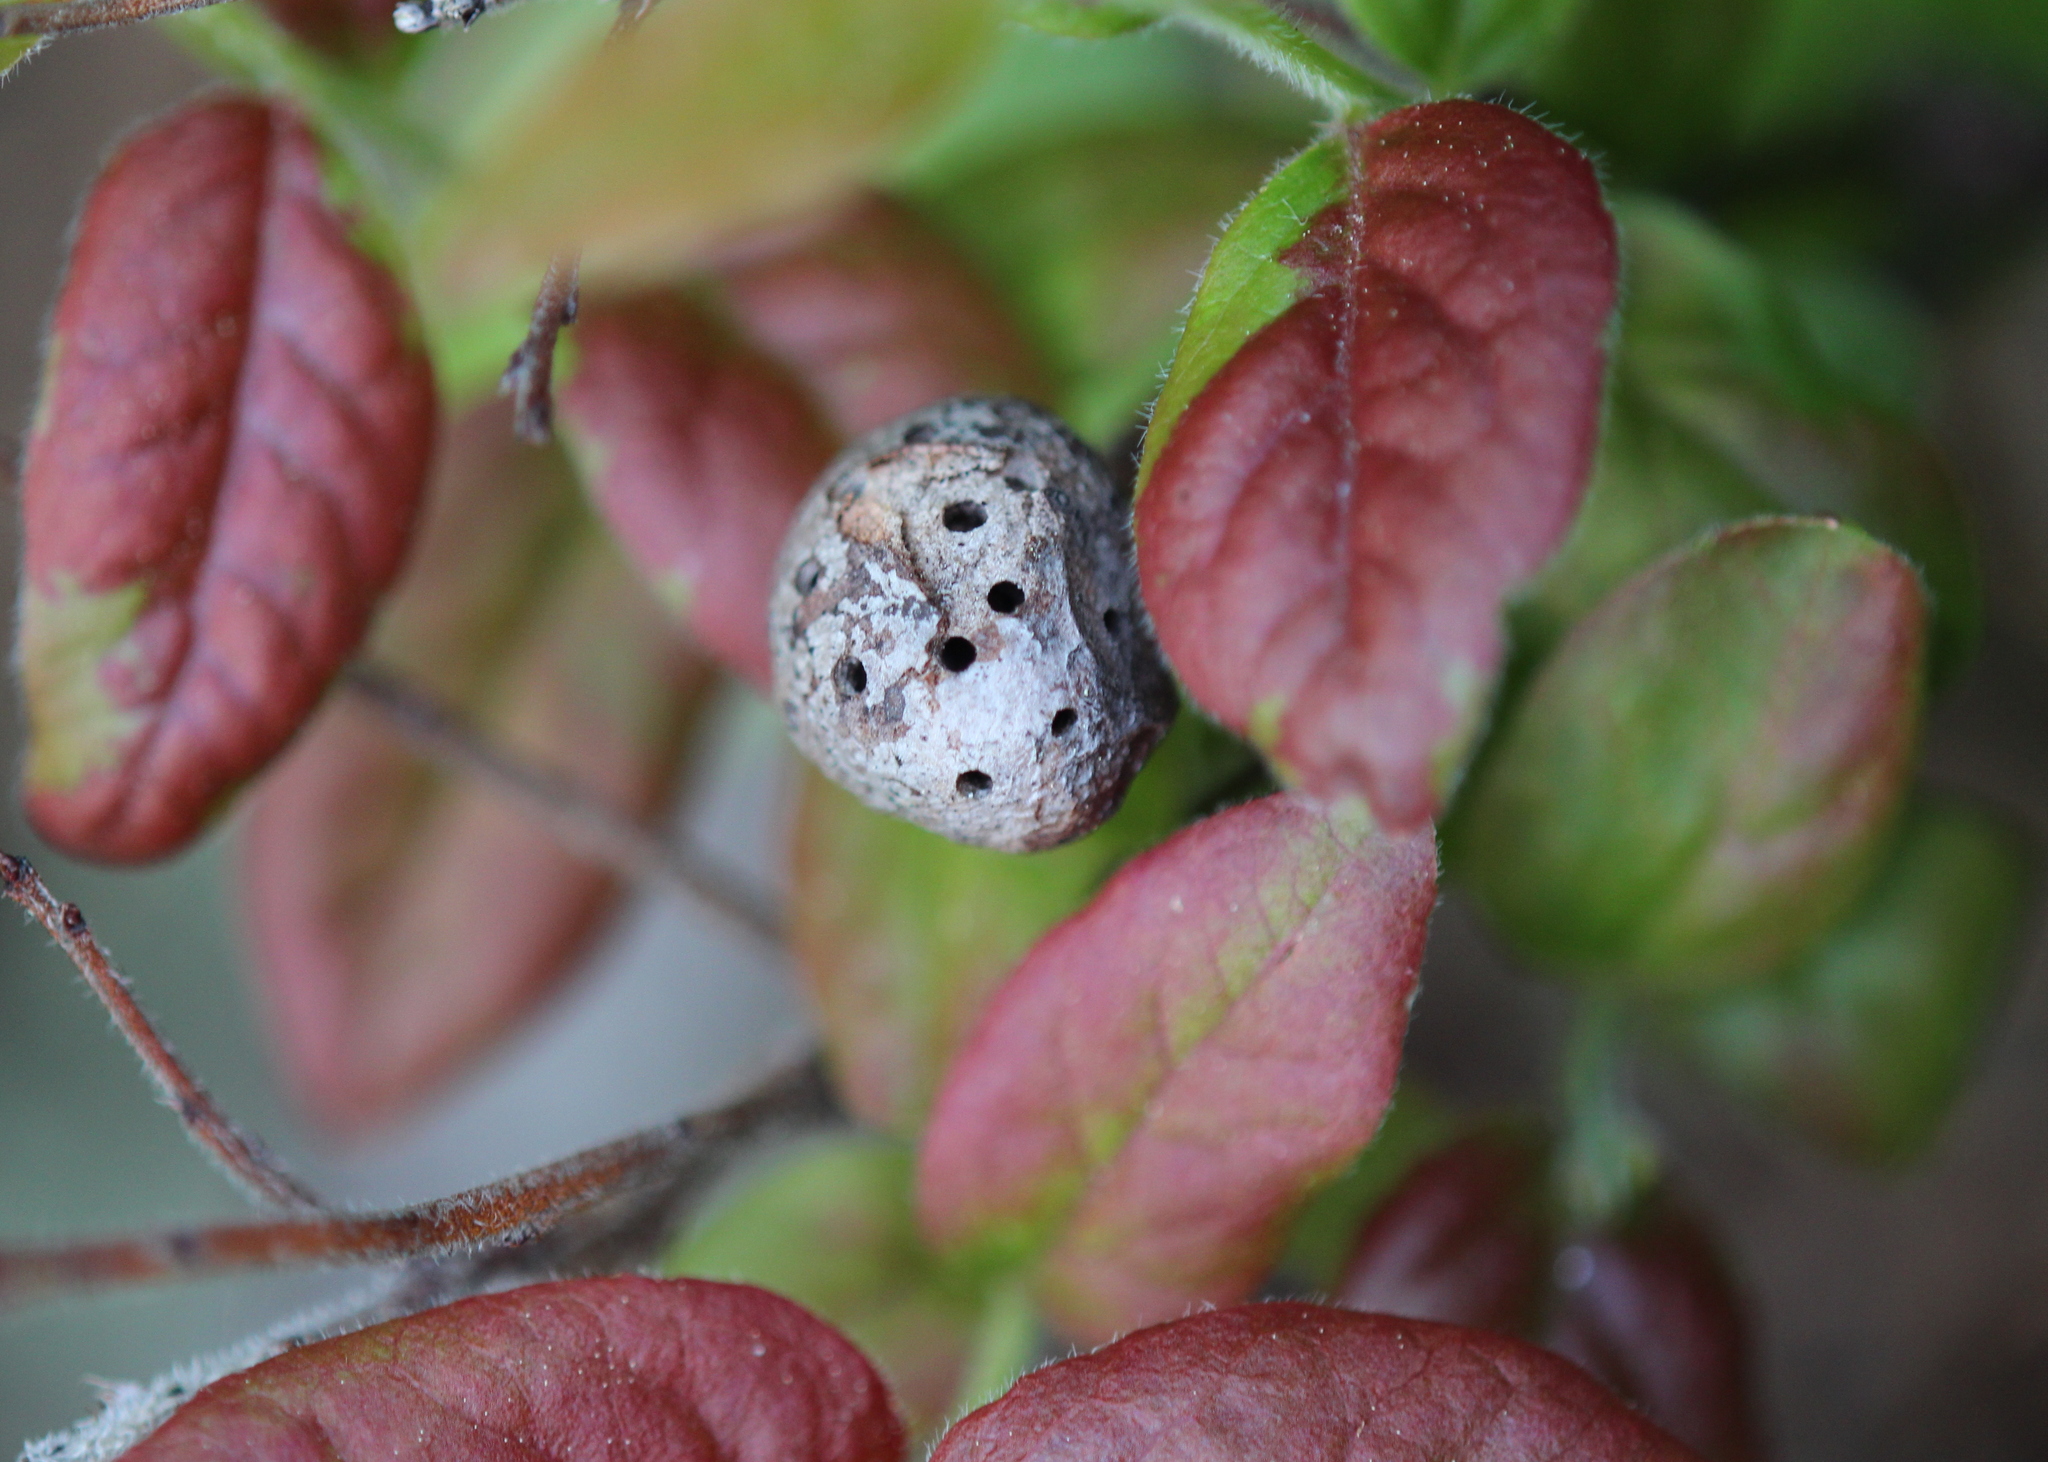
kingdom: Animalia
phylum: Arthropoda
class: Insecta
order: Hymenoptera
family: Pteromalidae
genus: Hemadas
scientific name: Hemadas nubilipennis
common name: Blueberry stem gall wasp
